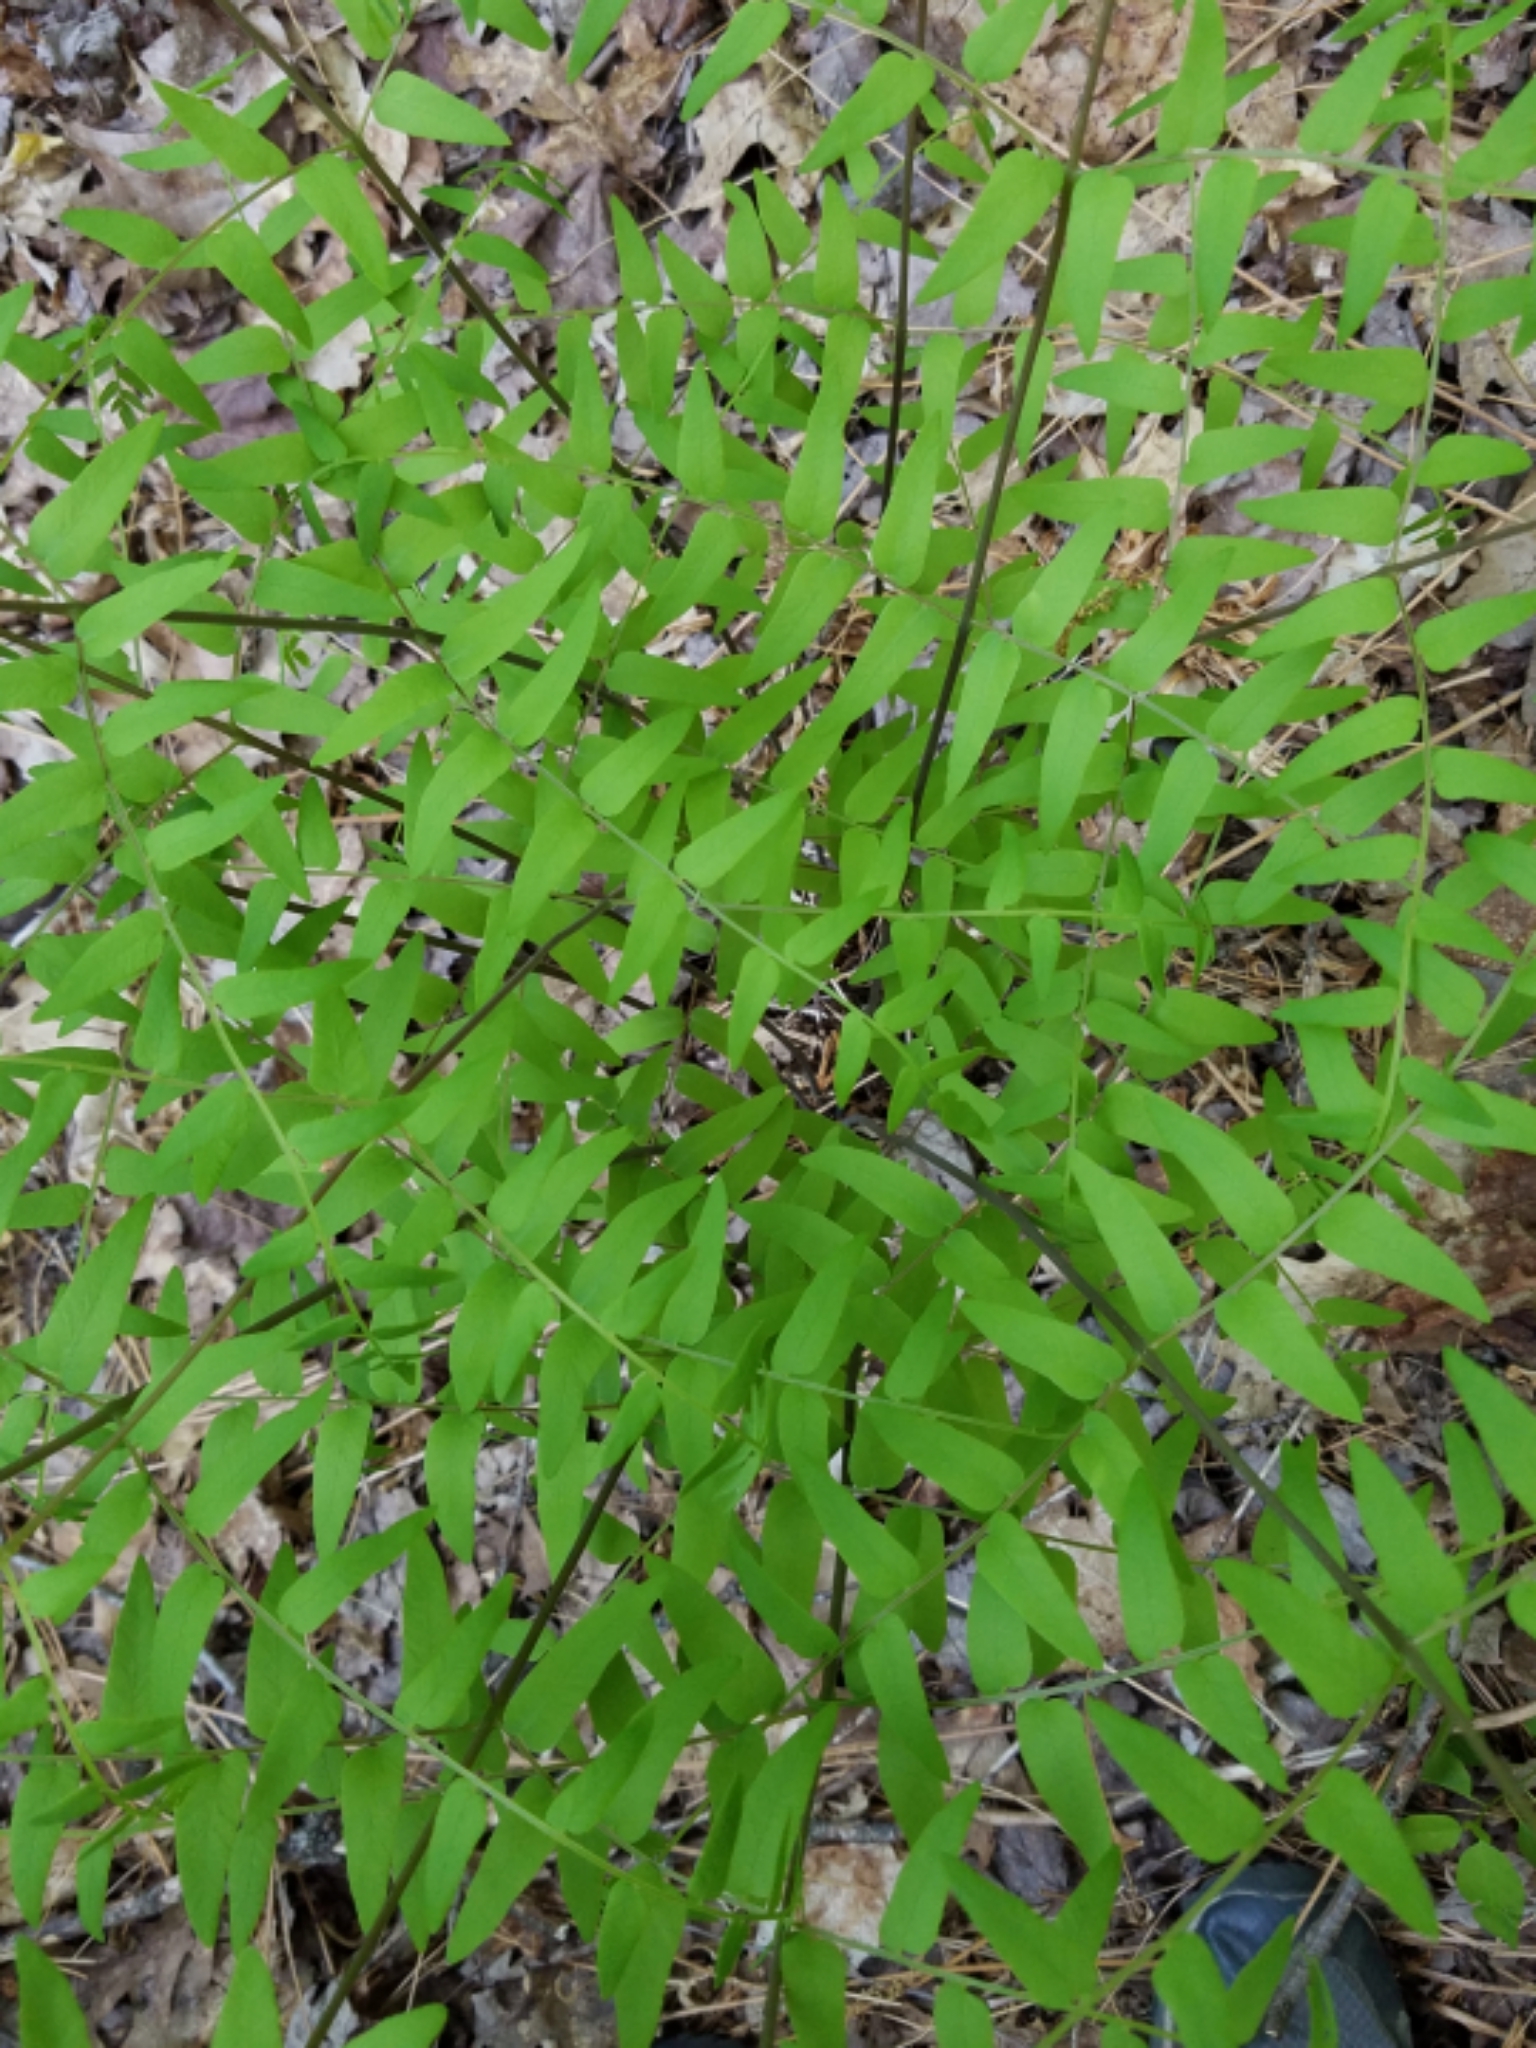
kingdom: Plantae
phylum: Tracheophyta
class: Polypodiopsida
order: Osmundales
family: Osmundaceae
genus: Osmunda
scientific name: Osmunda spectabilis
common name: American royal fern
